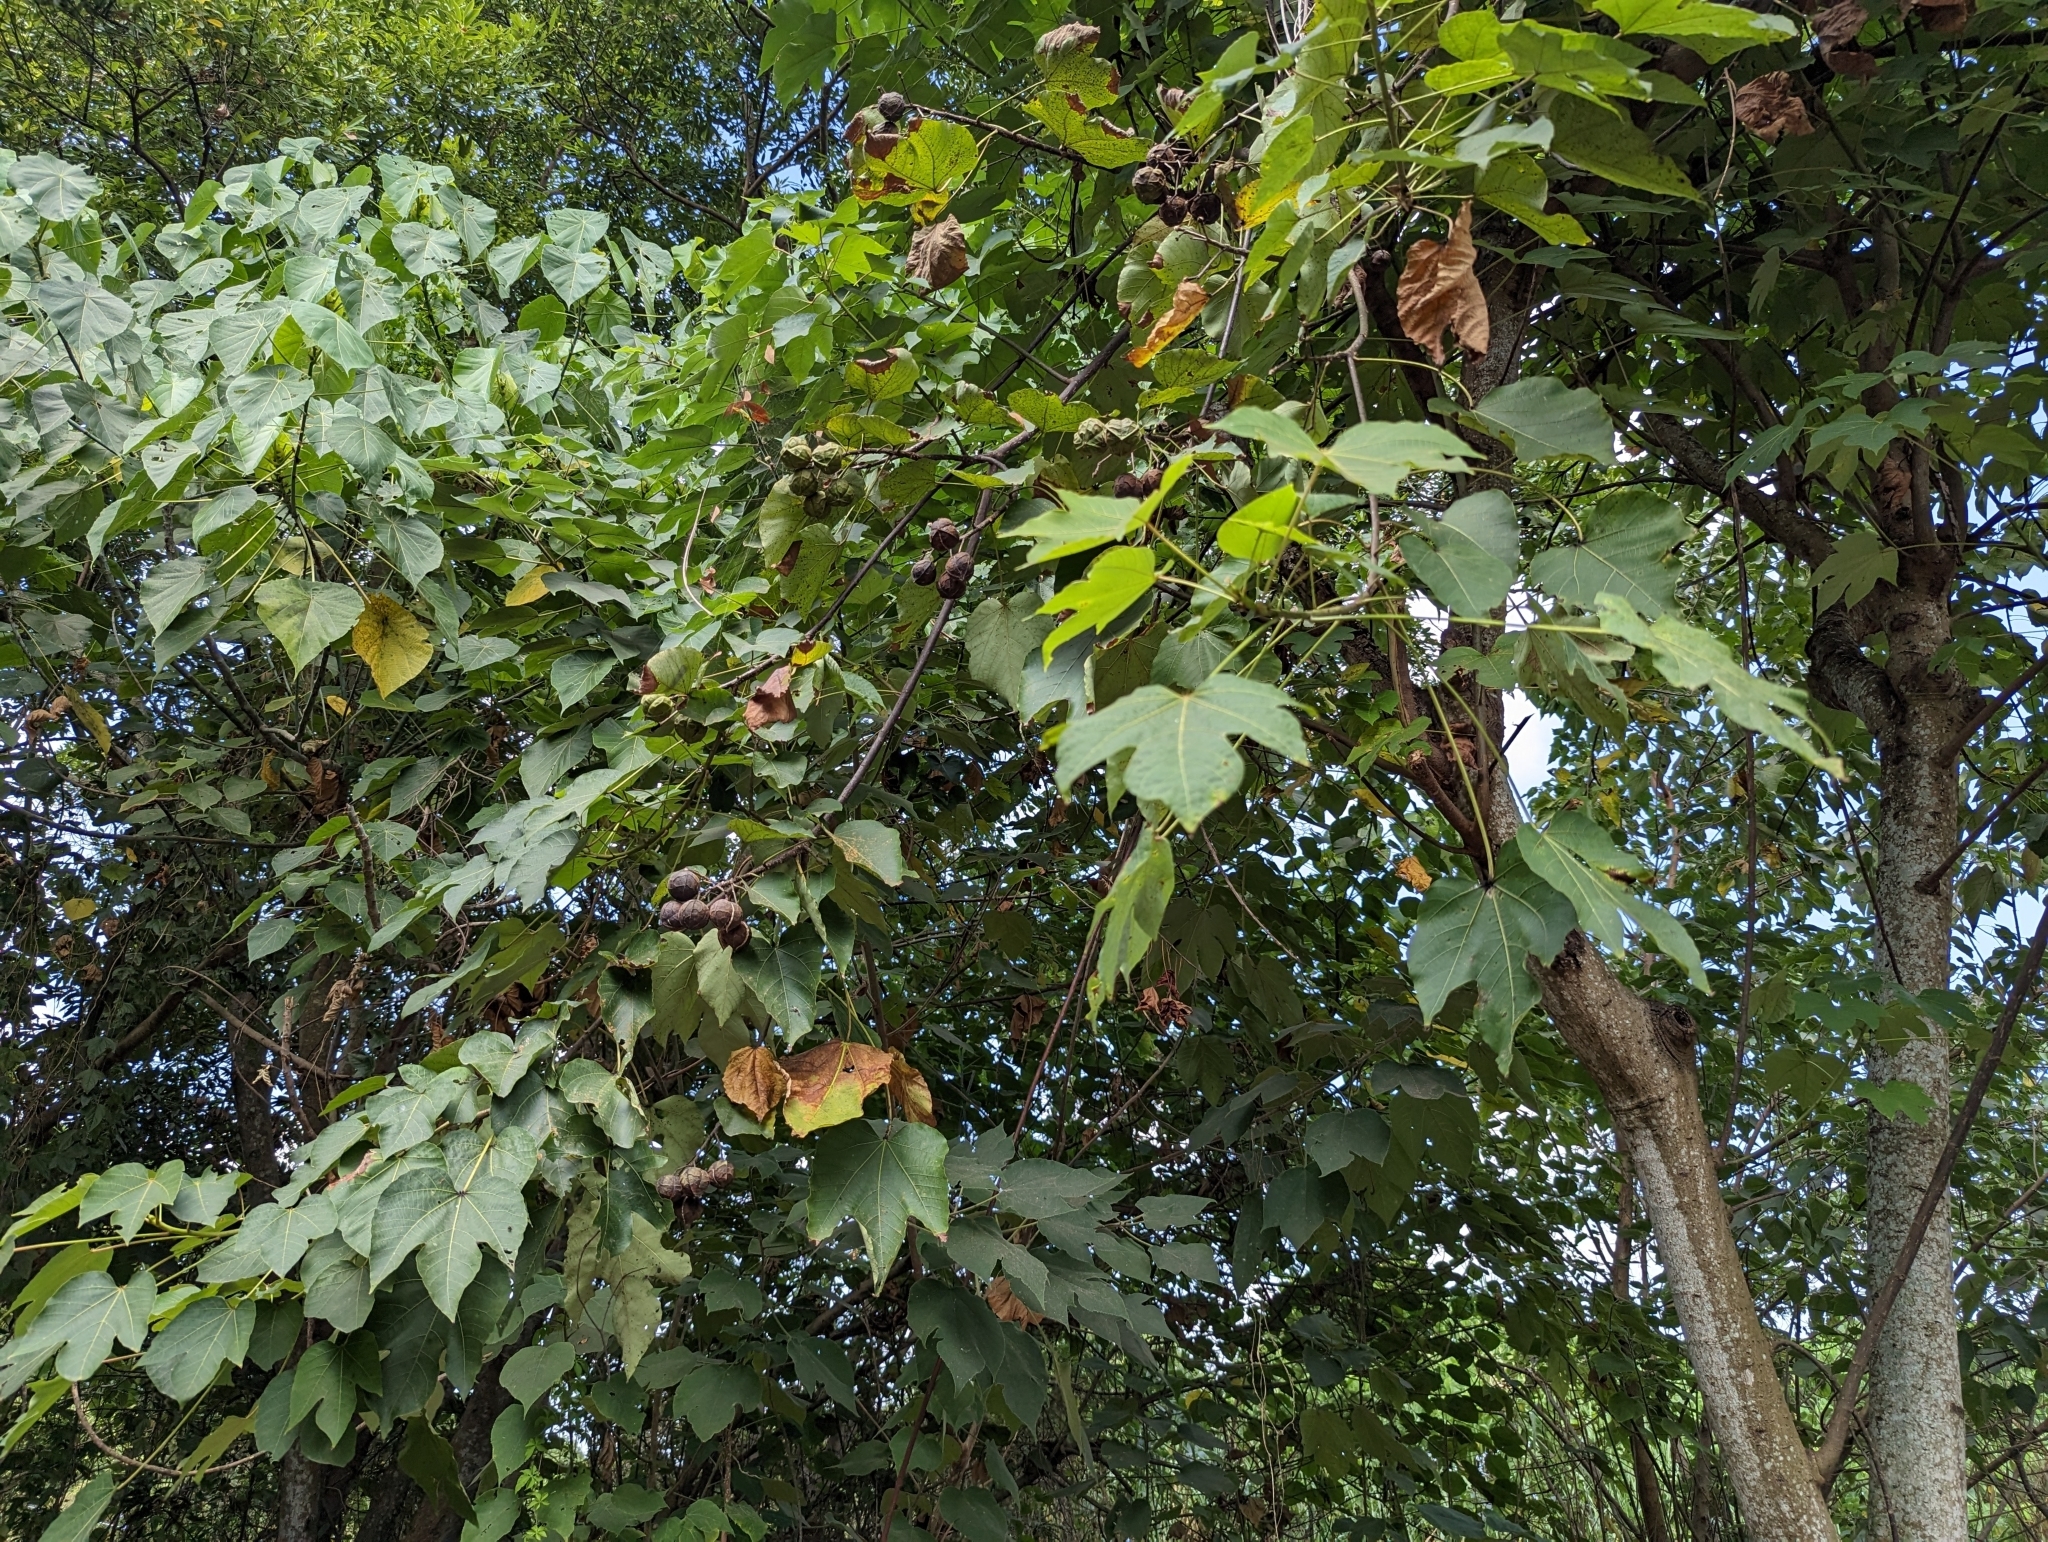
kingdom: Plantae
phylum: Tracheophyta
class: Magnoliopsida
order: Malpighiales
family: Euphorbiaceae
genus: Vernicia
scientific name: Vernicia montana
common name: Mu oil tree
